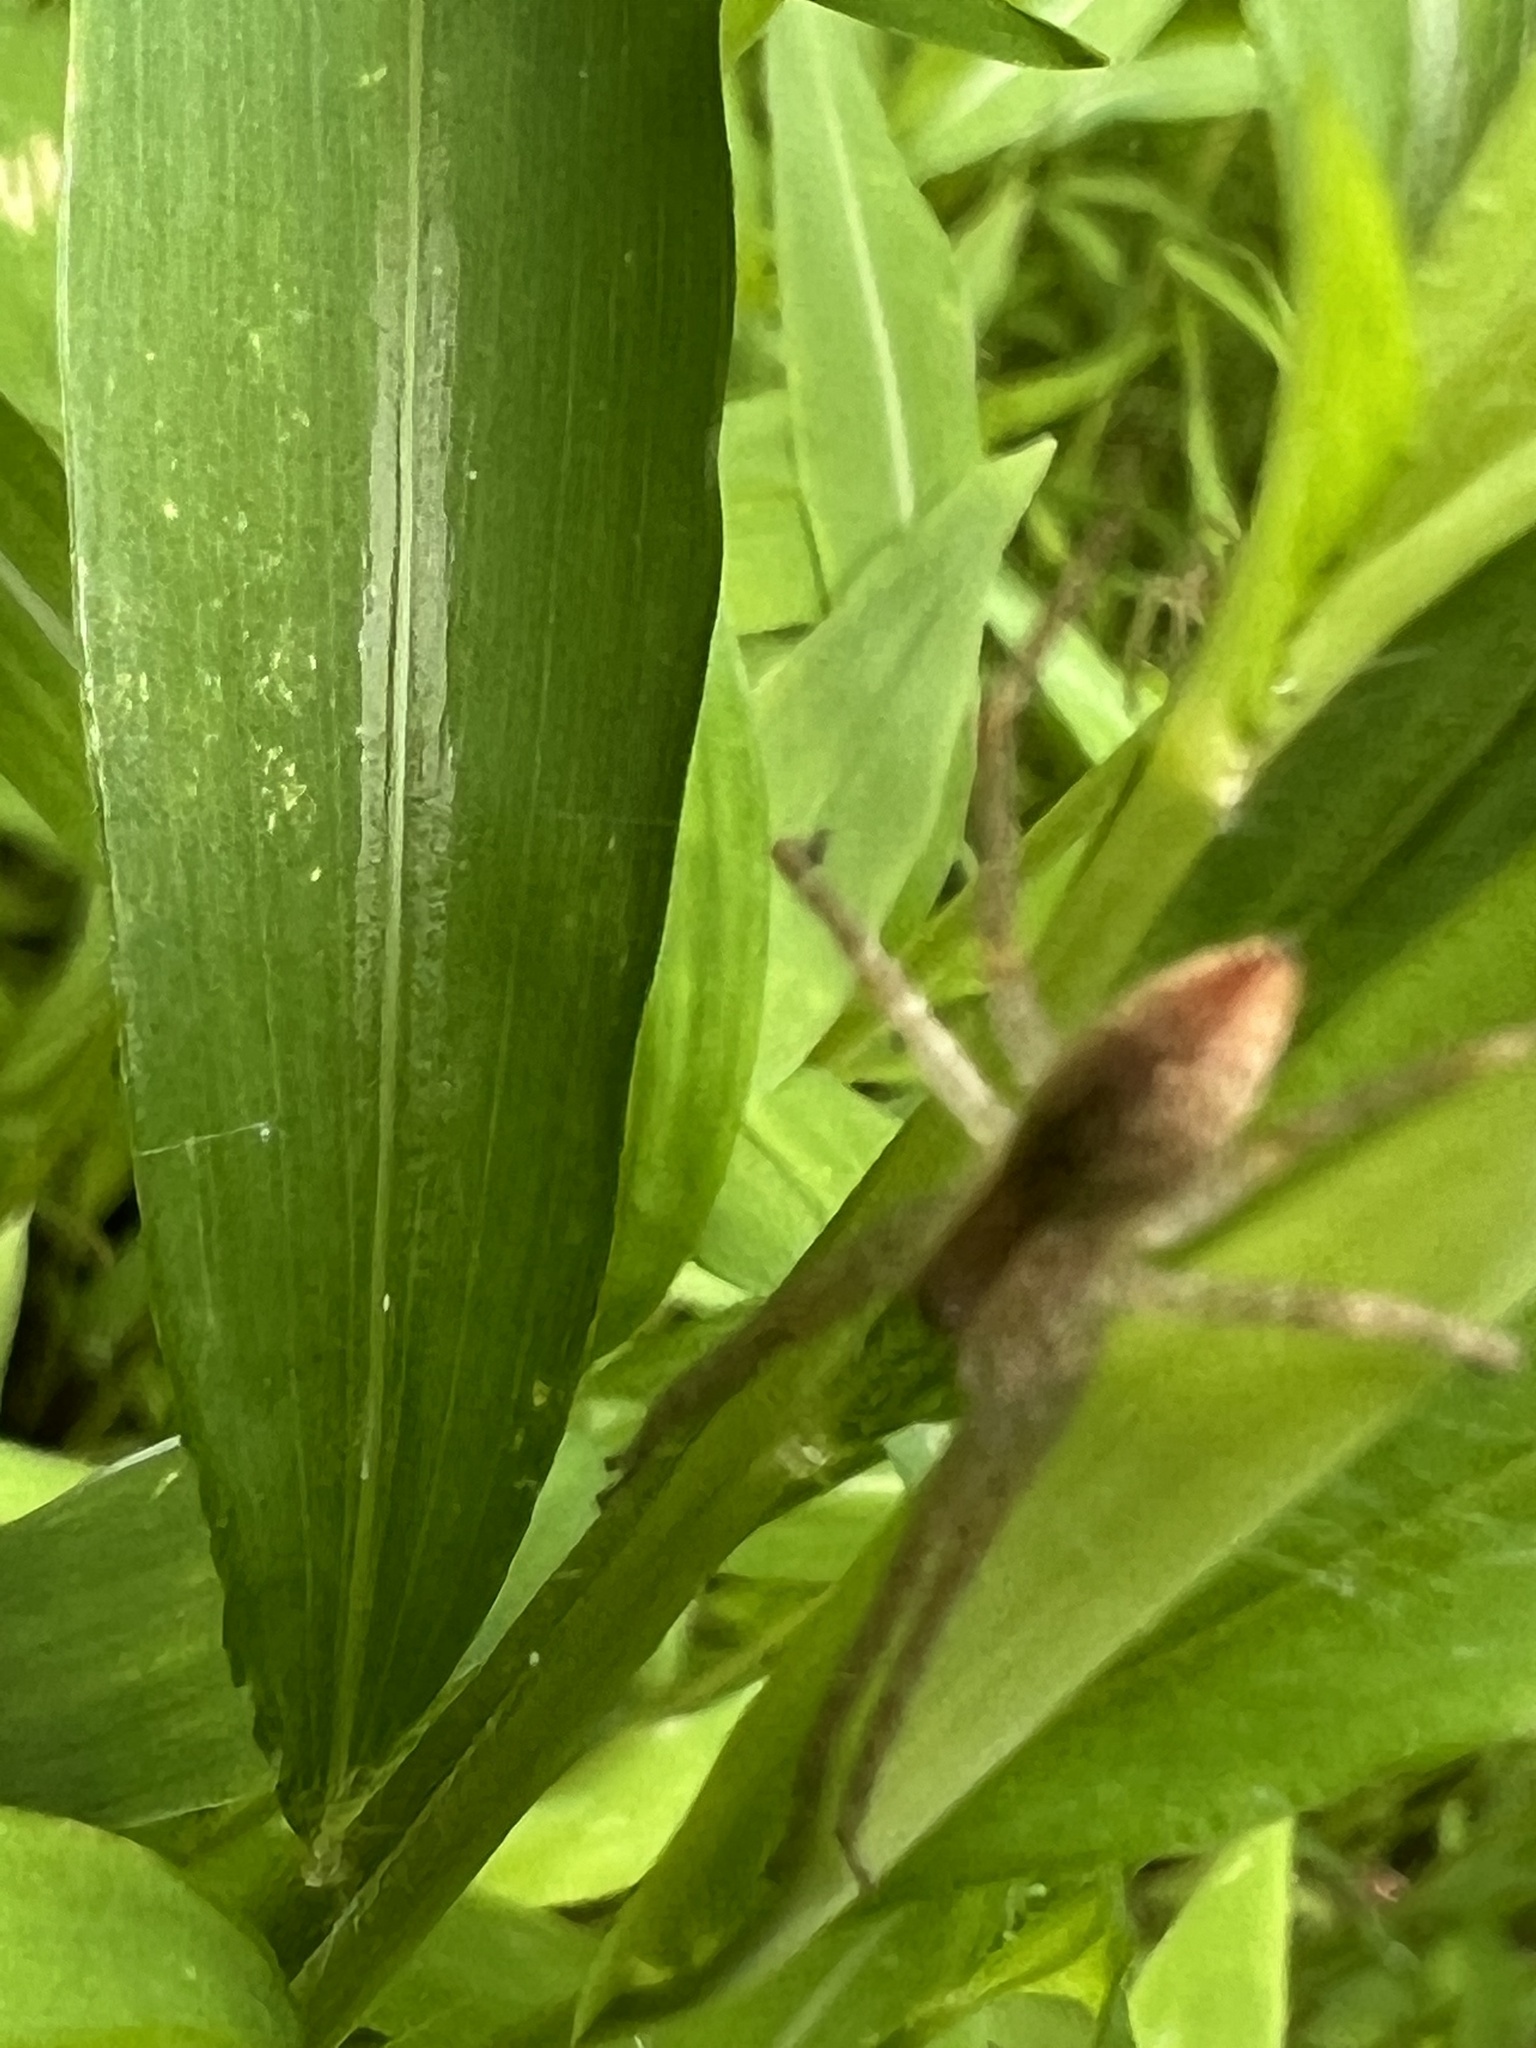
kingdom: Animalia
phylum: Arthropoda
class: Arachnida
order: Araneae
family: Pisauridae
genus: Pisaurina
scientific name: Pisaurina mira
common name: American nursery web spider
